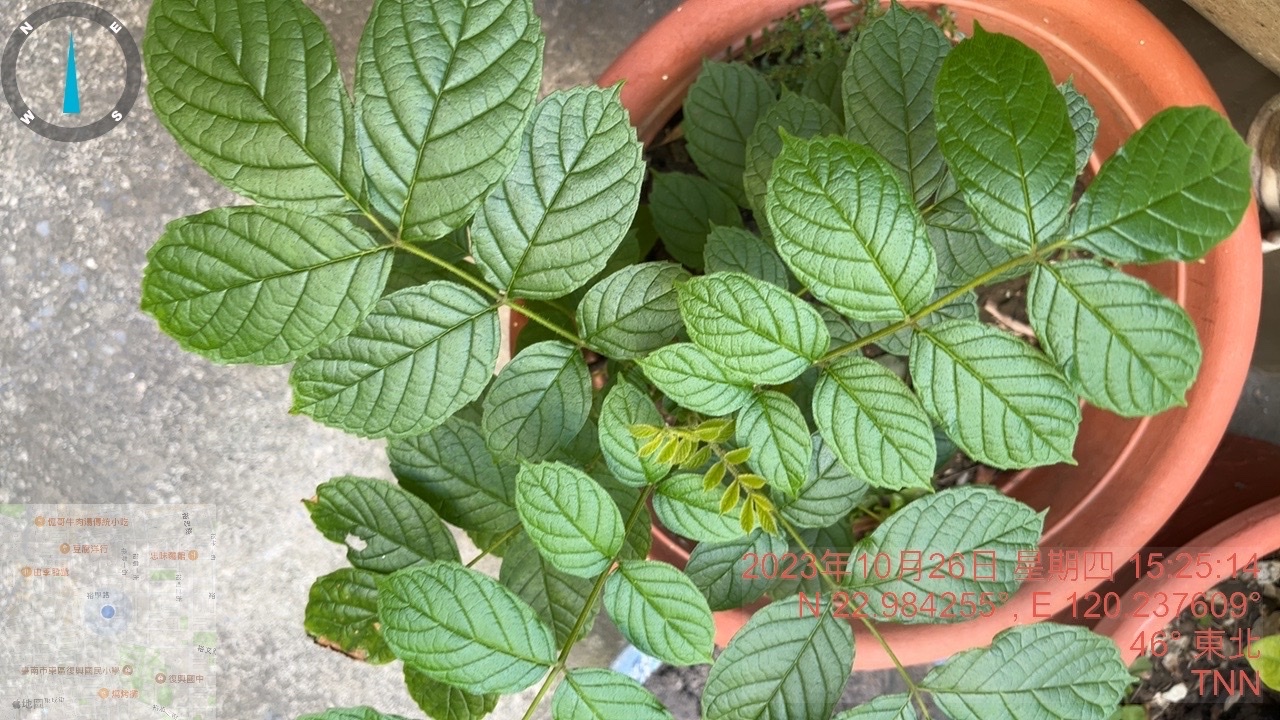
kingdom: Plantae
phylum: Tracheophyta
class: Magnoliopsida
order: Lamiales
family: Bignoniaceae
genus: Spathodea
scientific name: Spathodea campanulata
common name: African tuliptree
